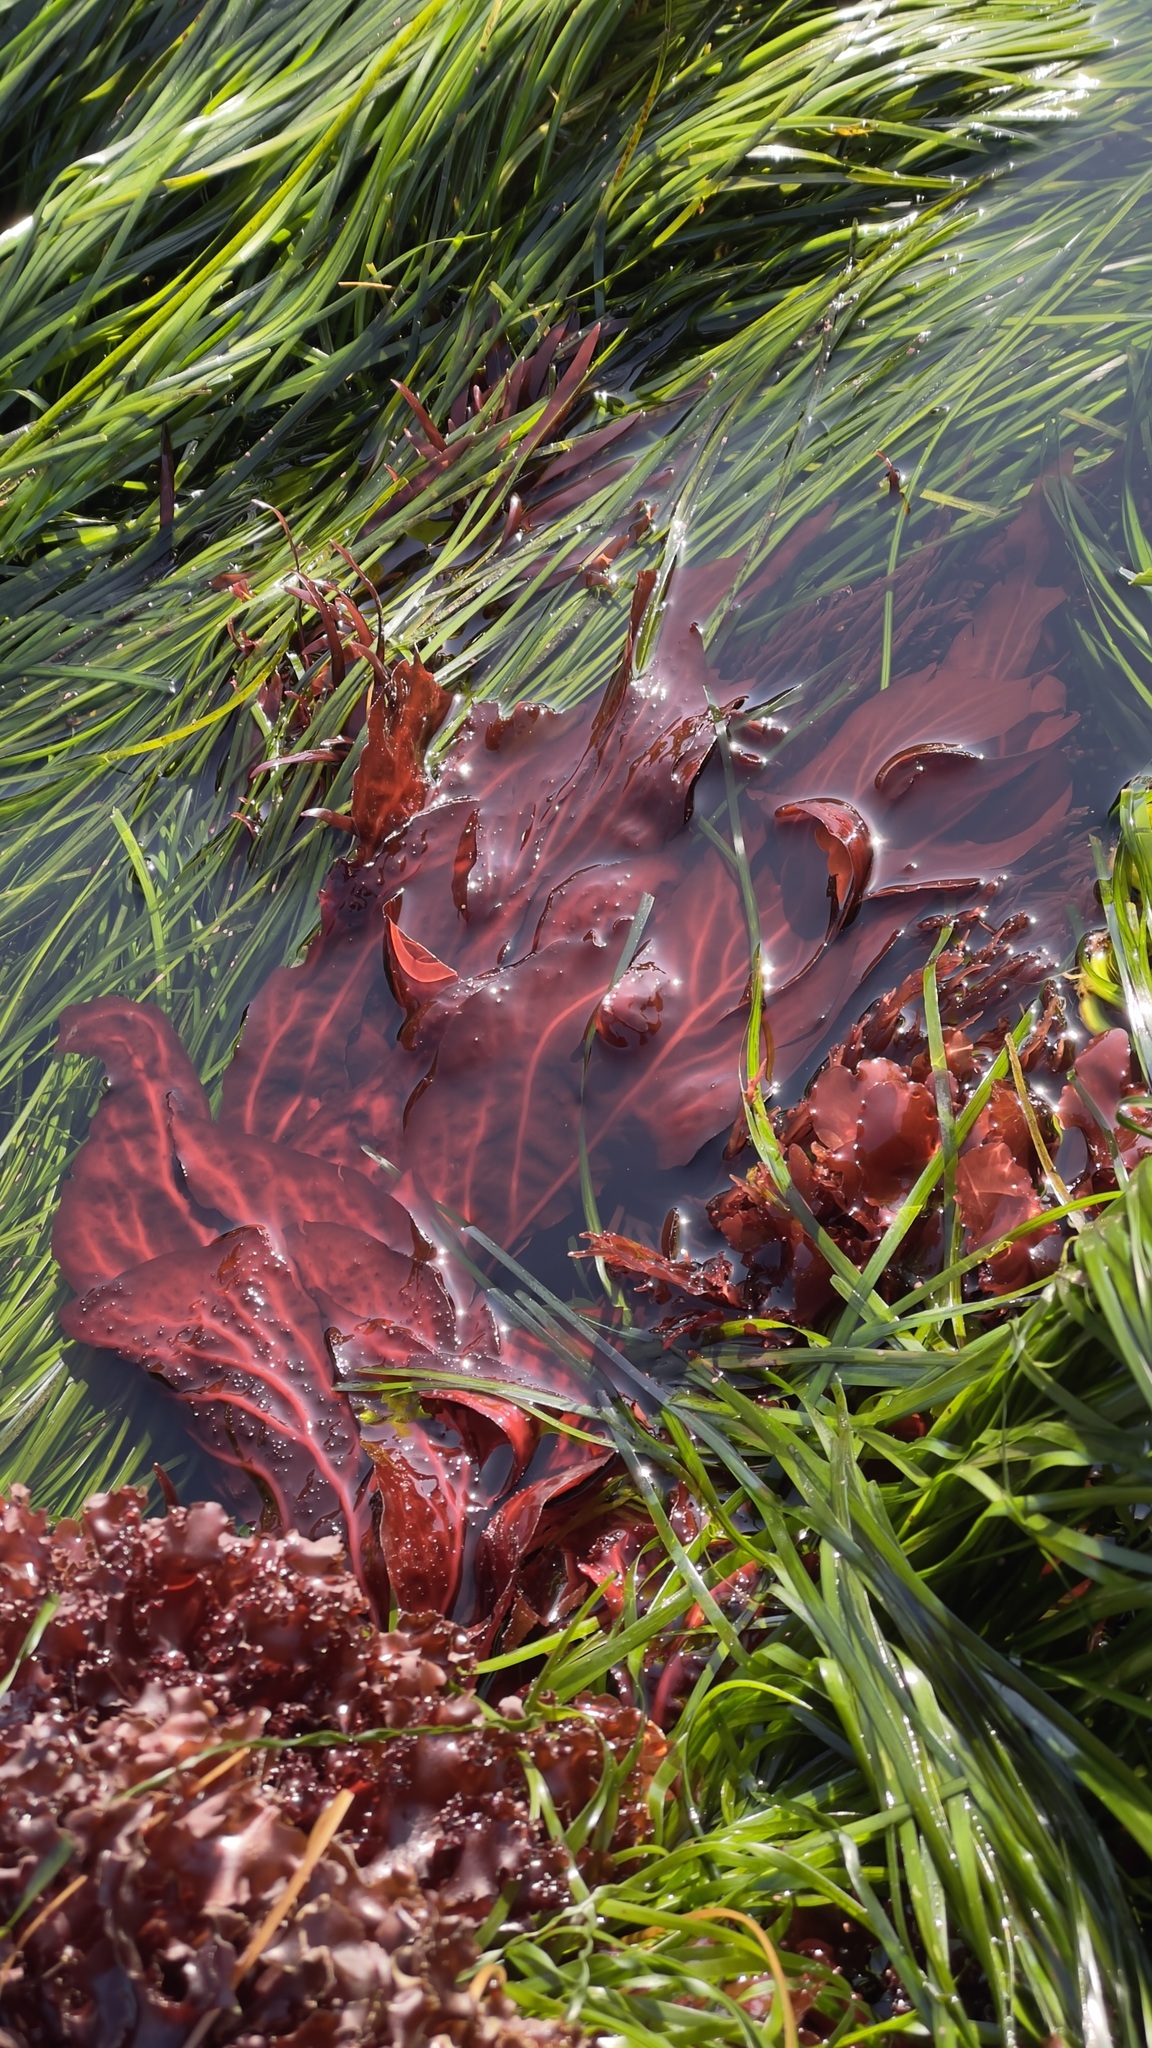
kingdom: Plantae
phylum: Rhodophyta
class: Florideophyceae
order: Gigartinales
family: Kallymeniaceae
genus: Erythrophyllum
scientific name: Erythrophyllum delesserioides
